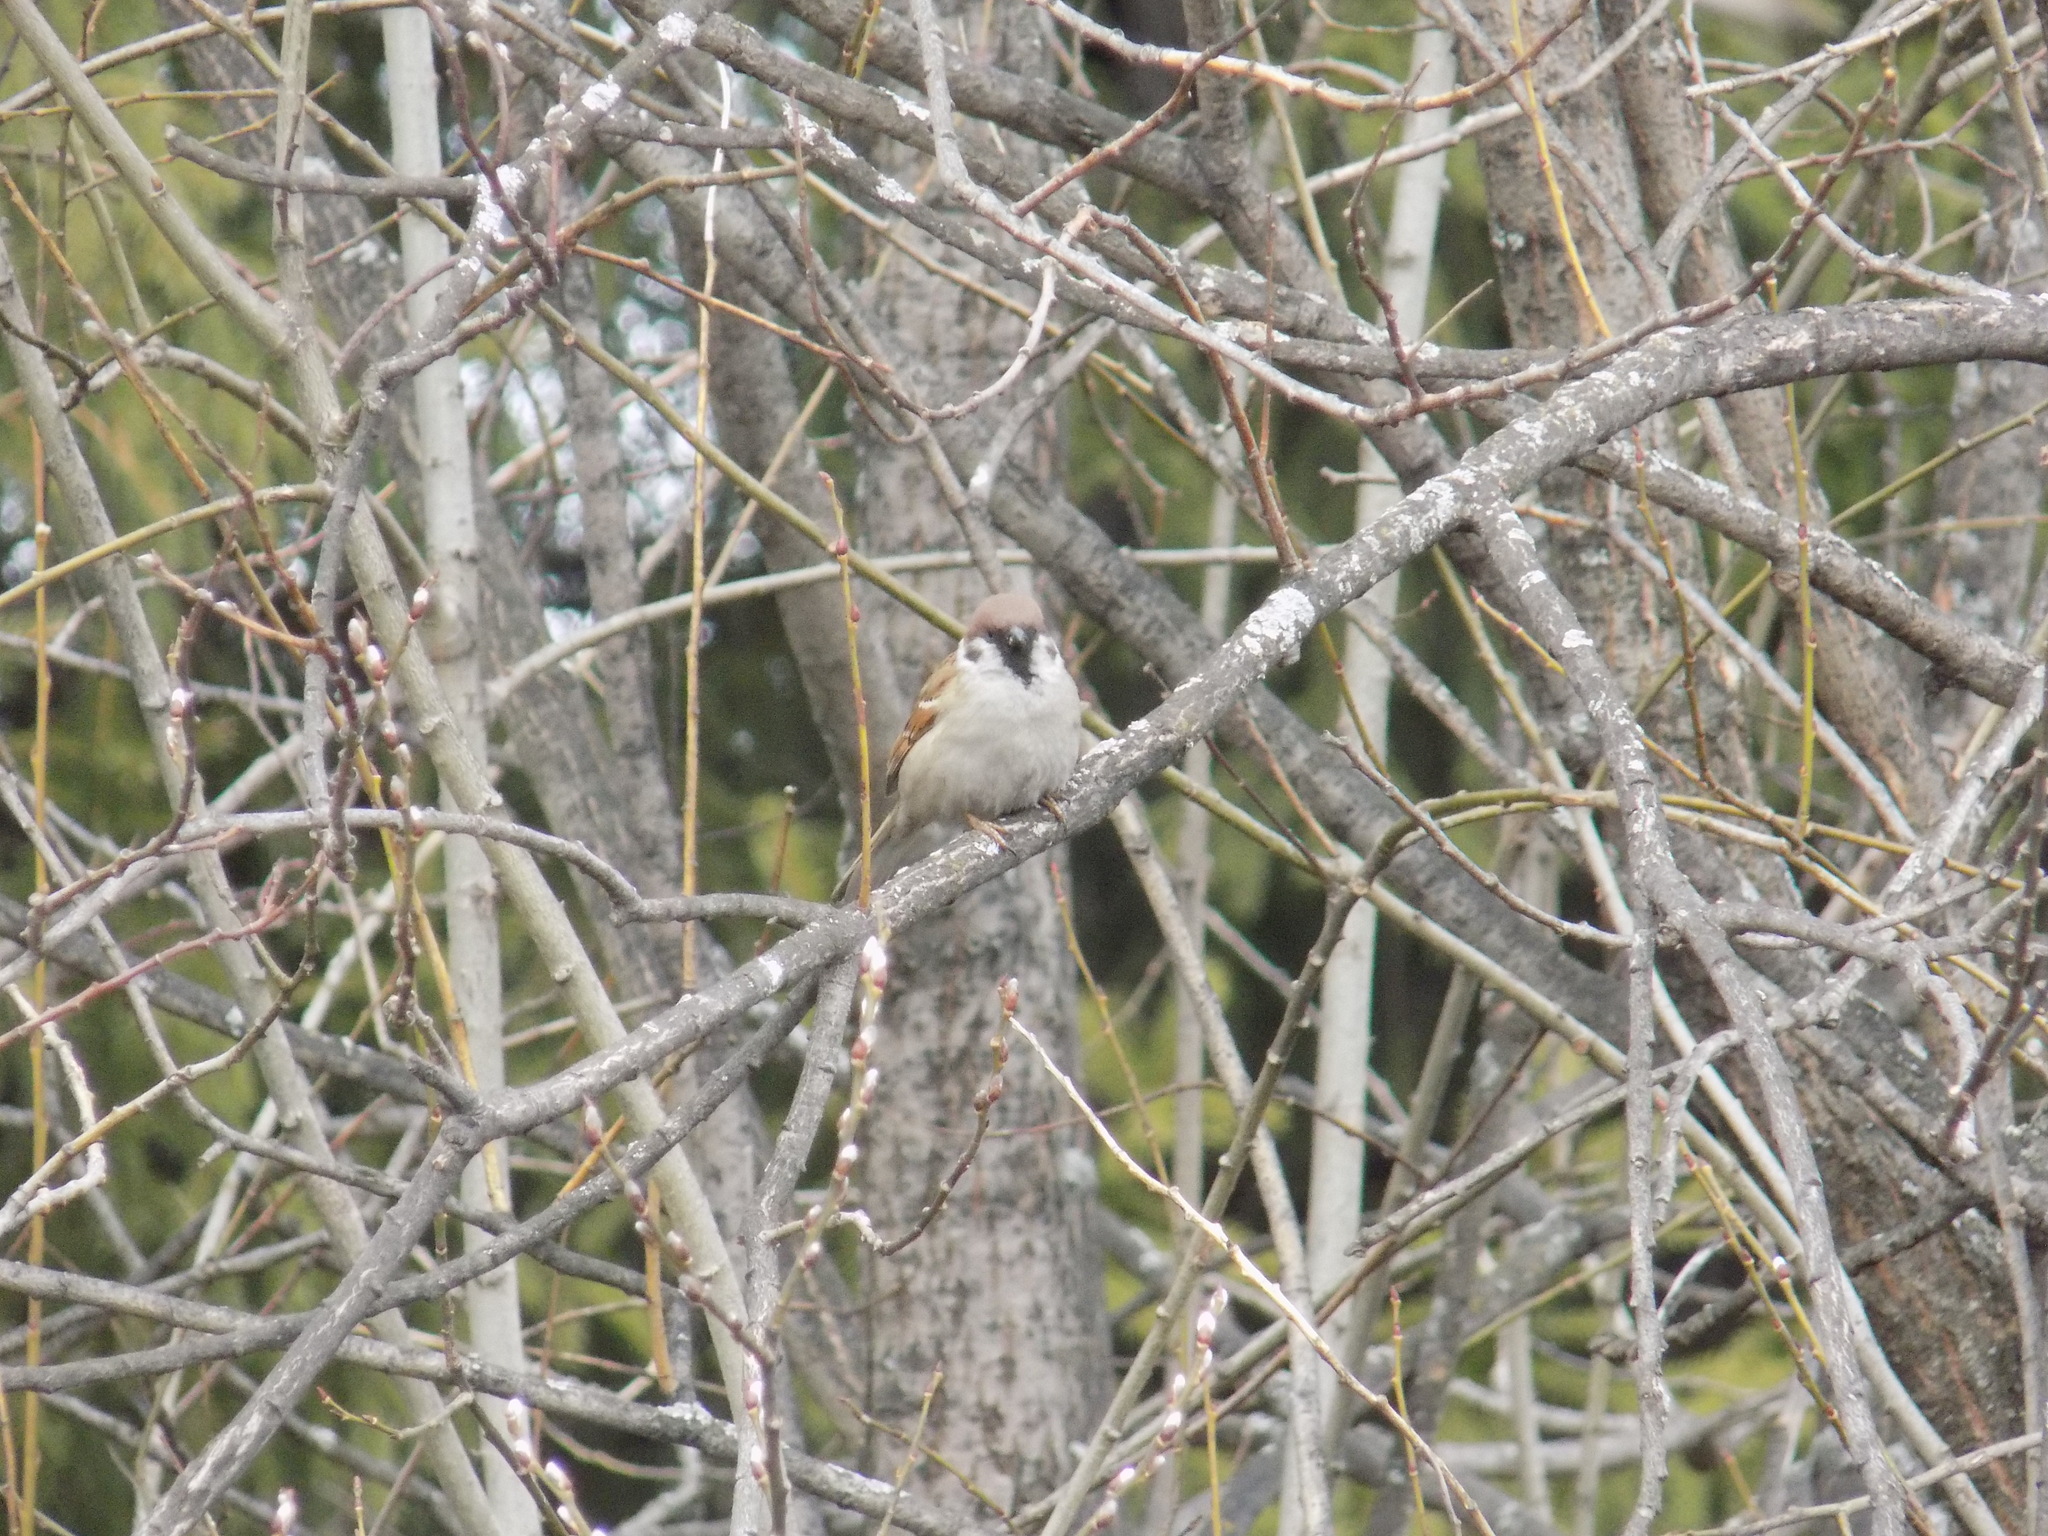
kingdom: Animalia
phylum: Chordata
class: Aves
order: Passeriformes
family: Passeridae
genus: Passer
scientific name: Passer montanus
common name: Eurasian tree sparrow
